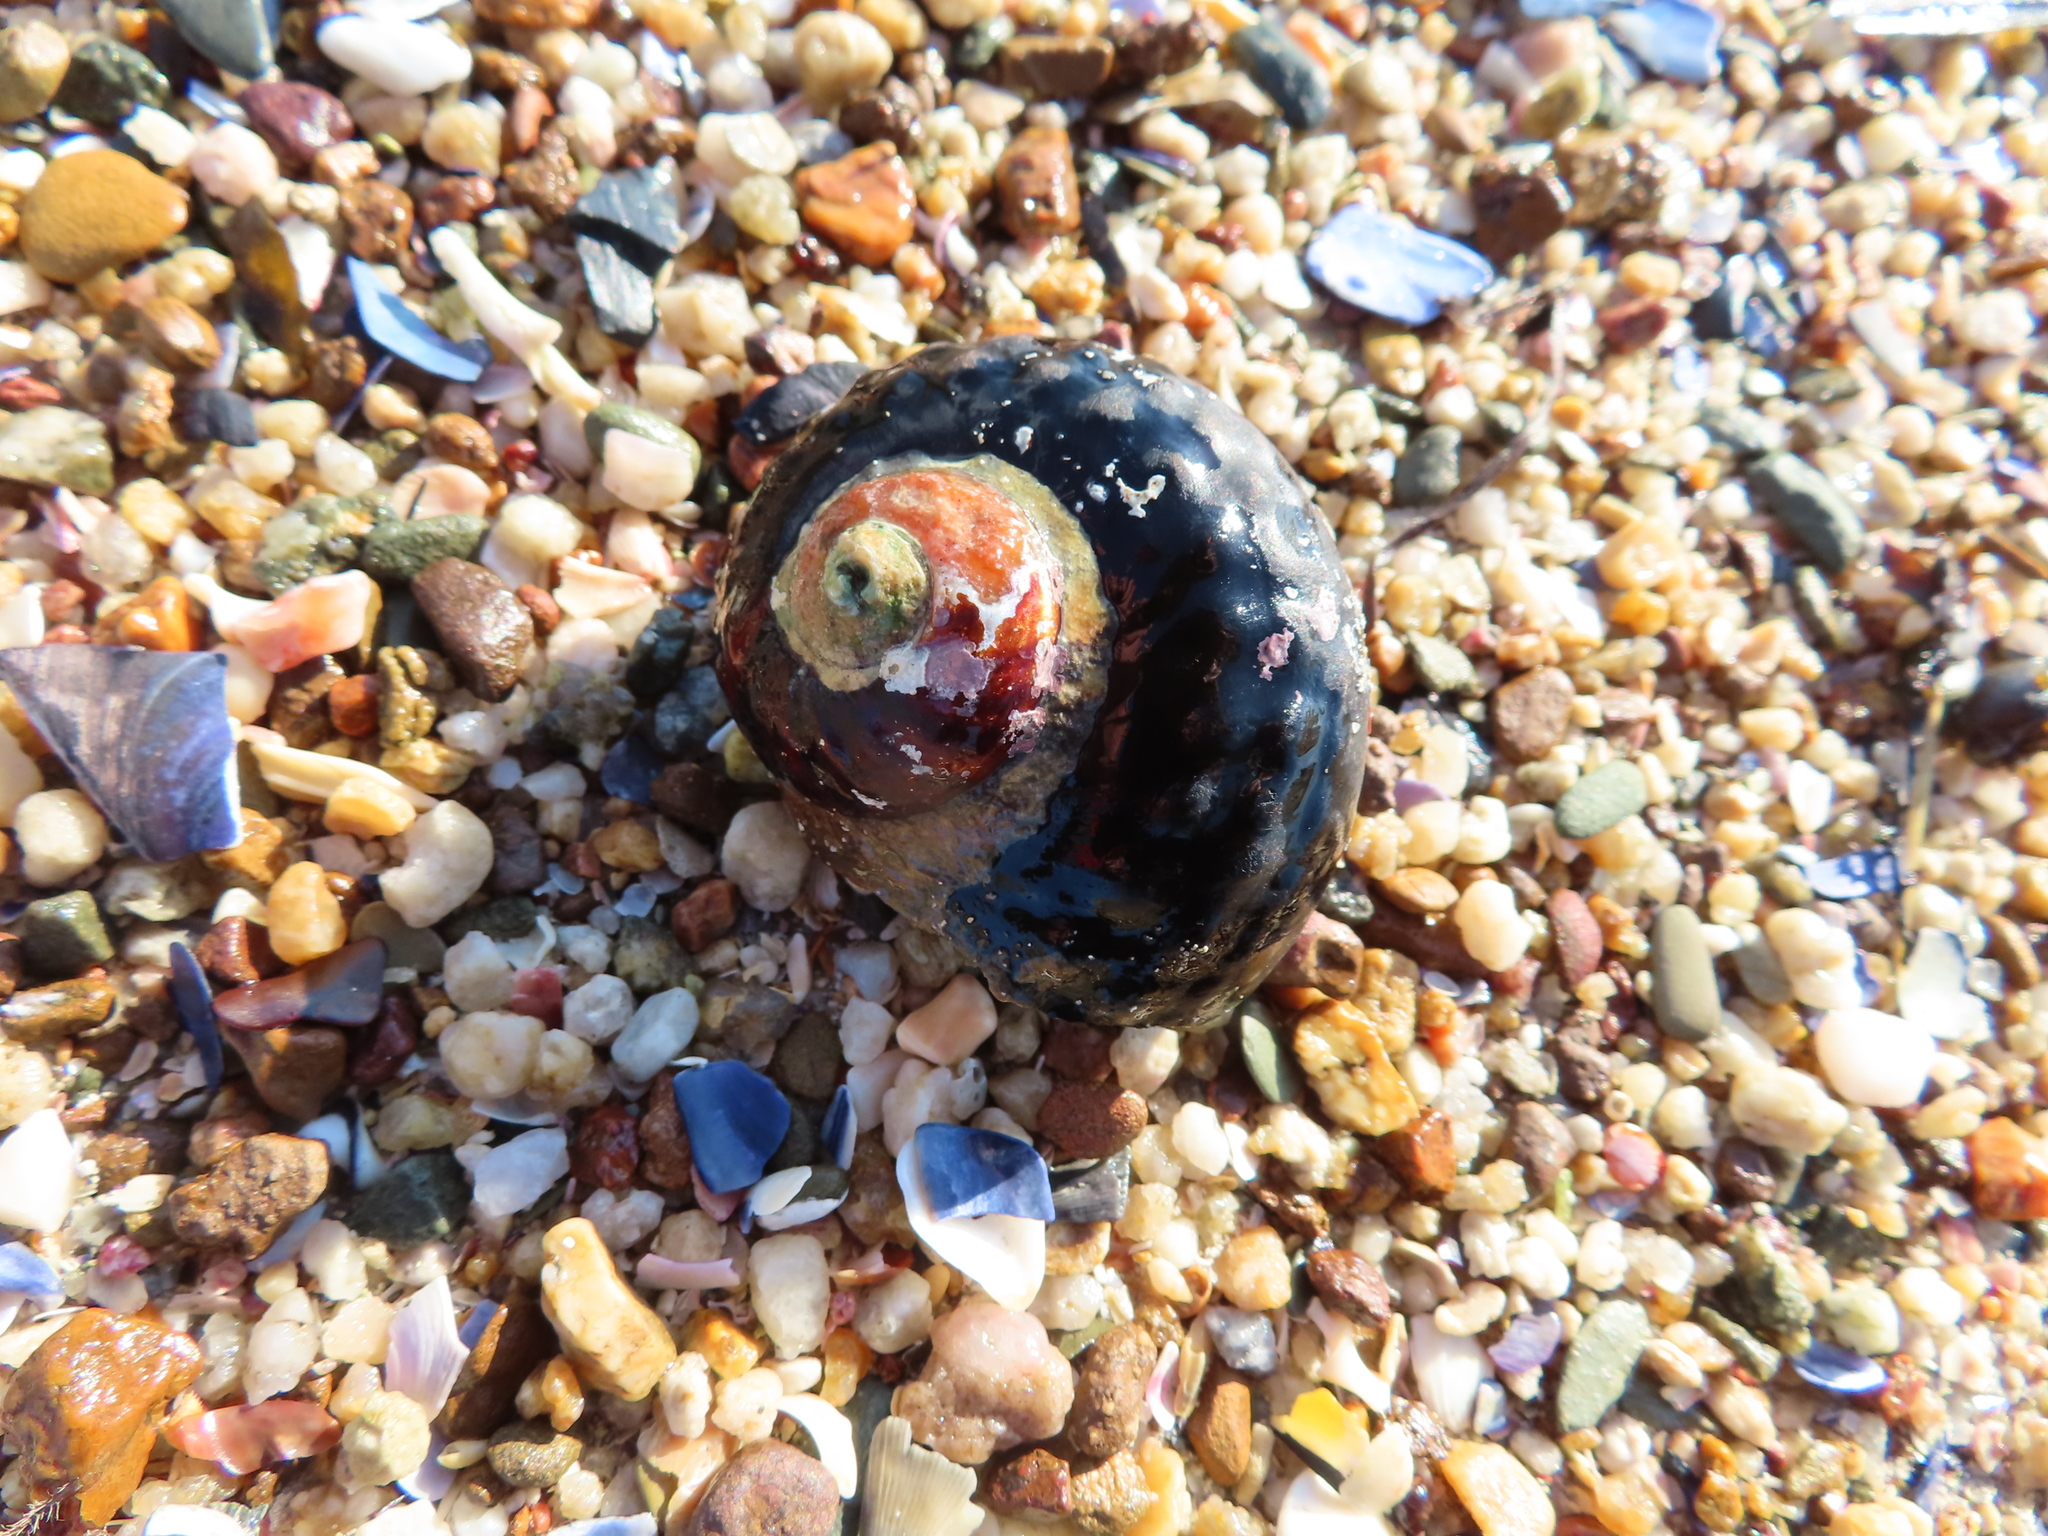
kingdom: Animalia
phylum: Mollusca
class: Gastropoda
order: Trochida
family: Turbinidae
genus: Turbo
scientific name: Turbo sarmaticus
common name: South african turban
